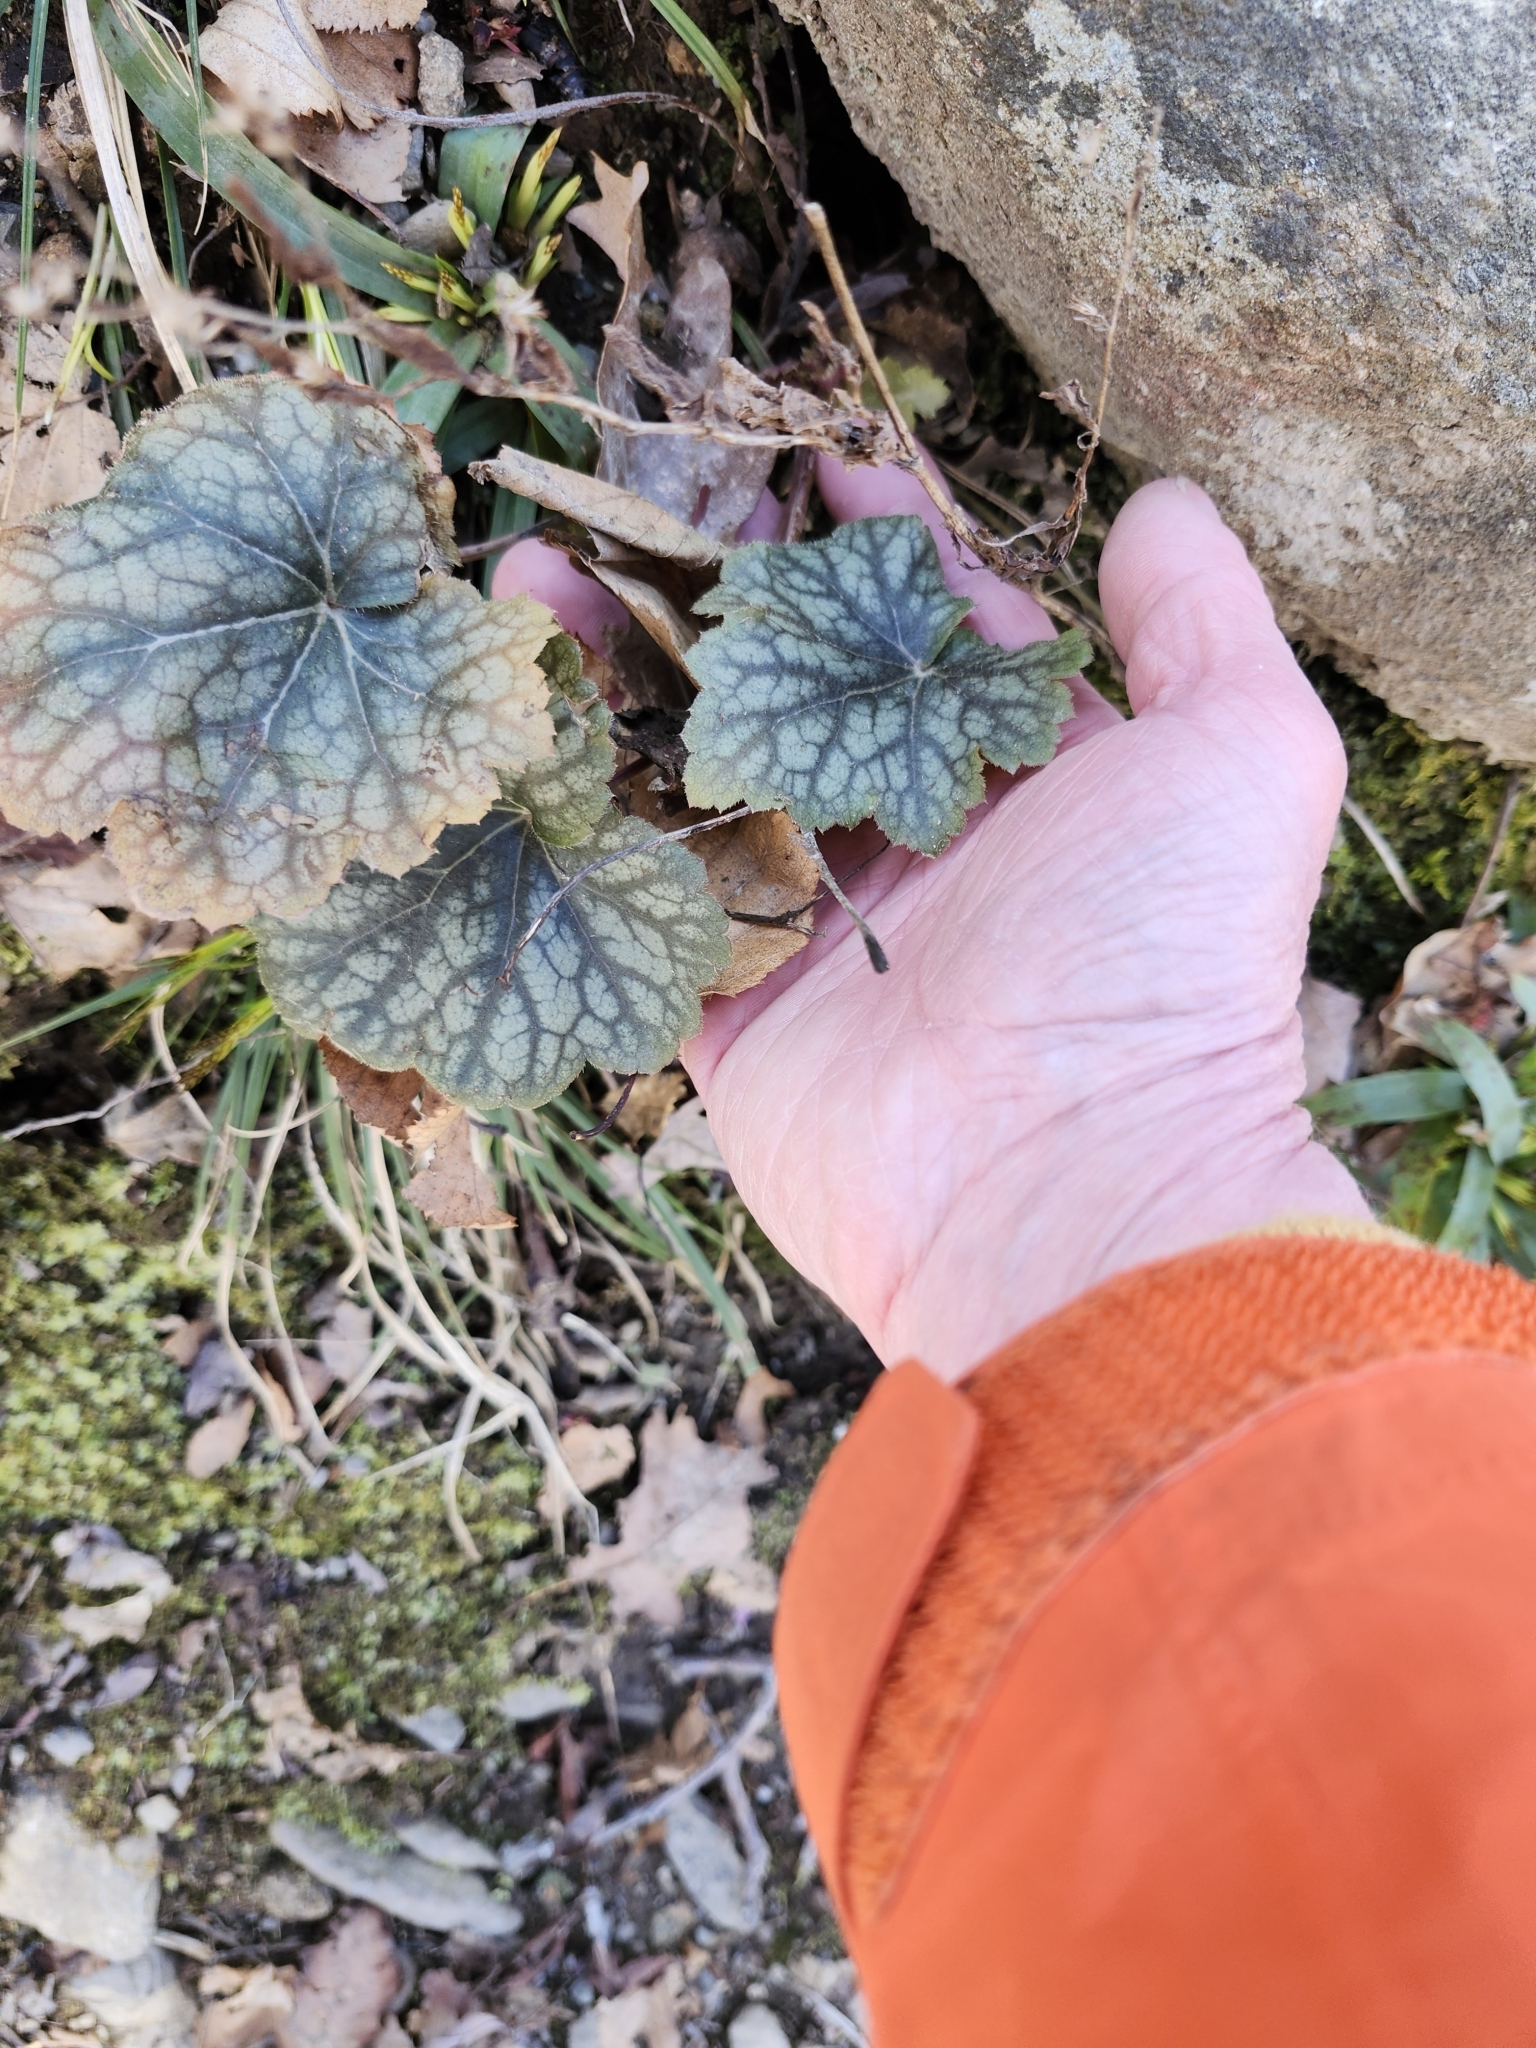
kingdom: Plantae
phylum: Tracheophyta
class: Magnoliopsida
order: Saxifragales
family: Saxifragaceae
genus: Heuchera
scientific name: Heuchera americana
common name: Alumroot
